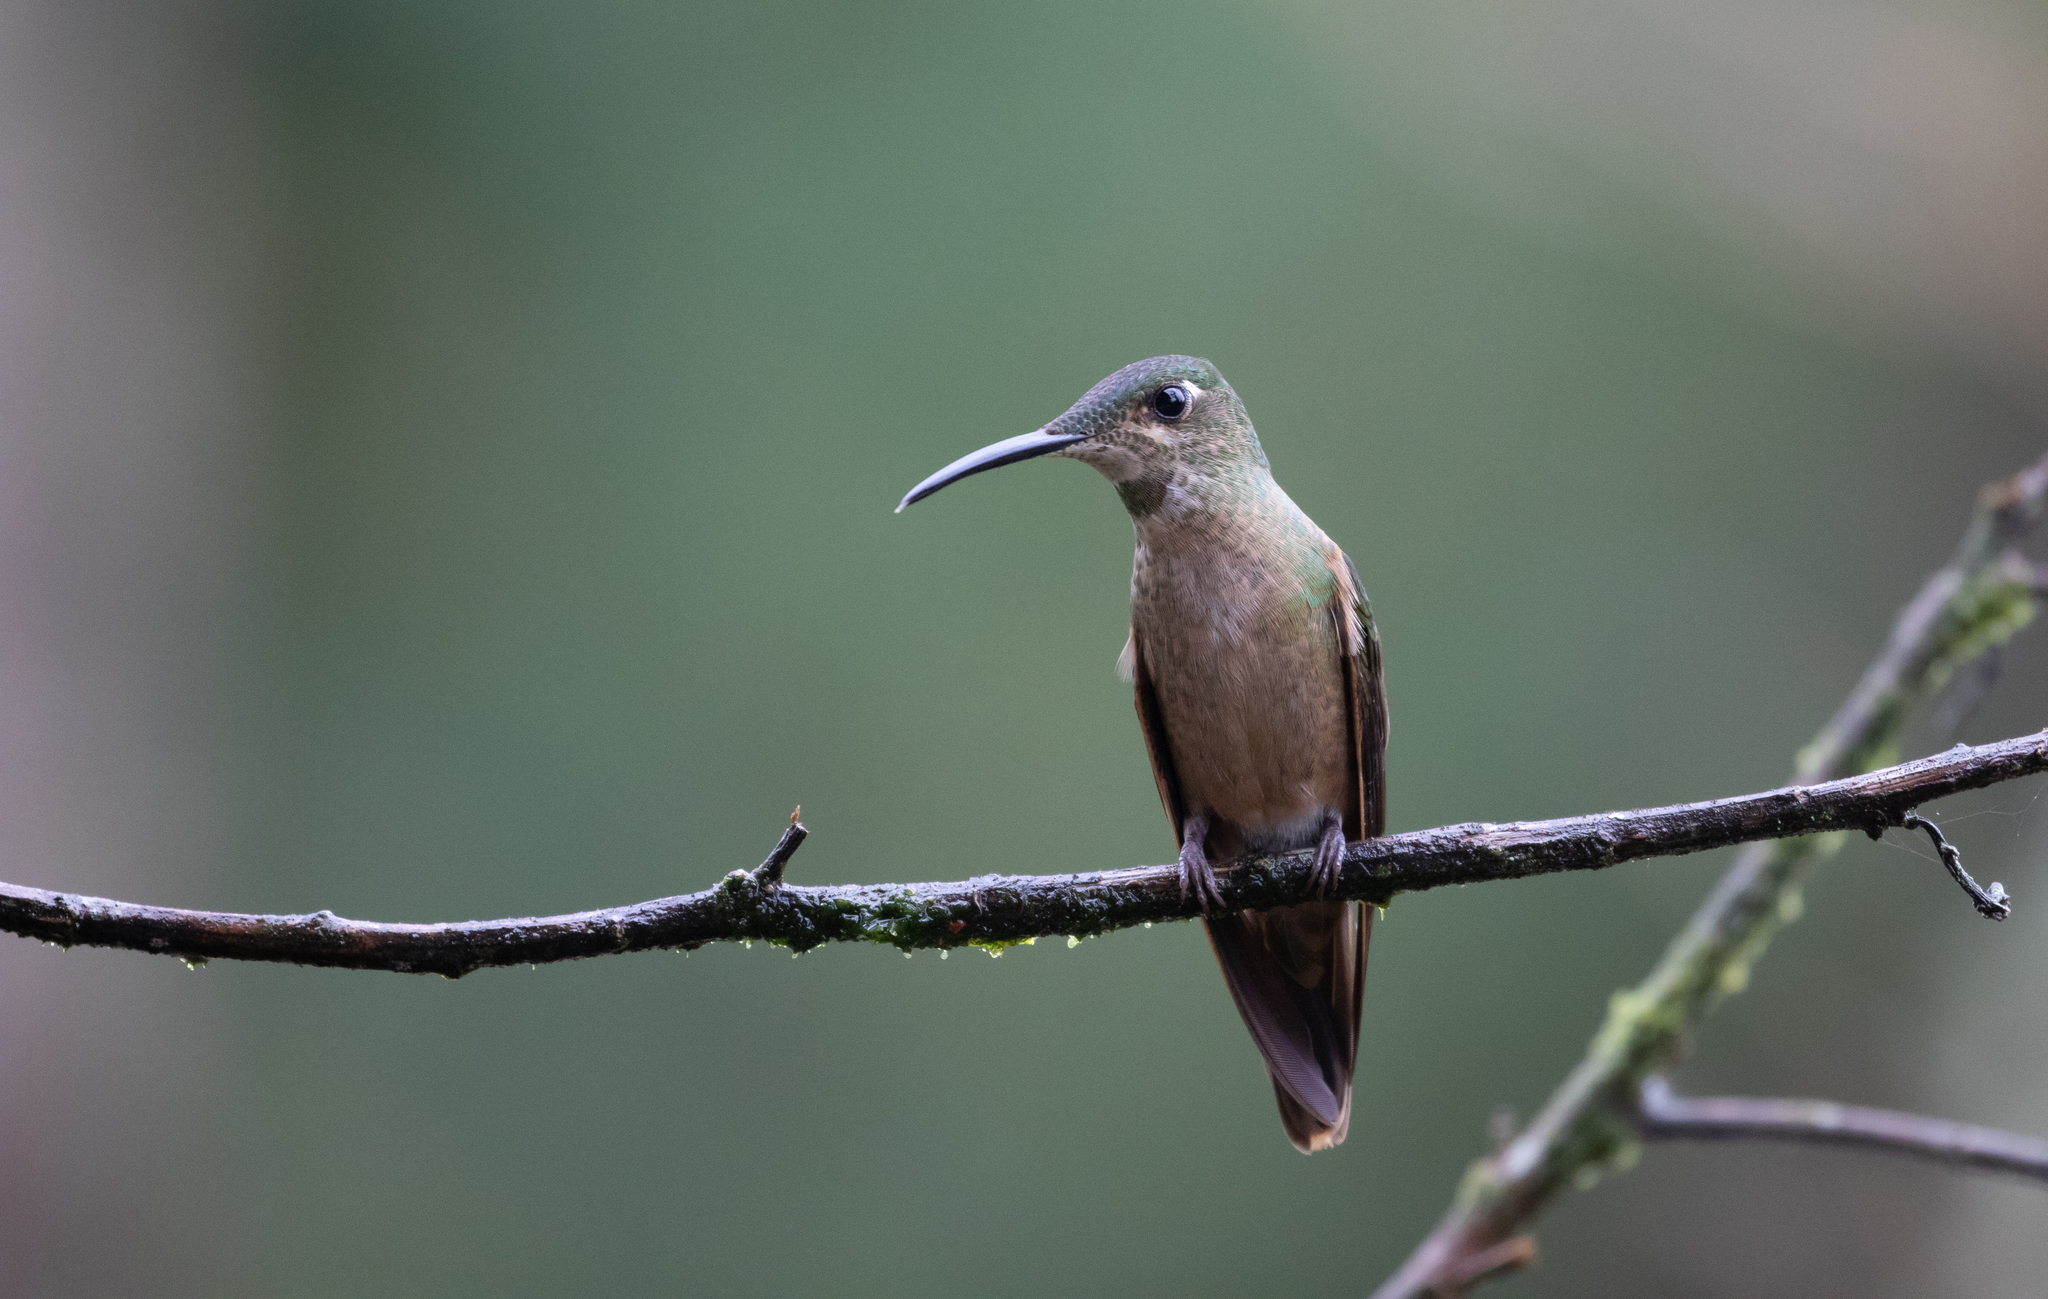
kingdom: Animalia
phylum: Chordata
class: Aves
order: Apodiformes
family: Trochilidae
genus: Heliodoxa
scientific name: Heliodoxa rubinoides
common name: Fawn-breasted brilliant
